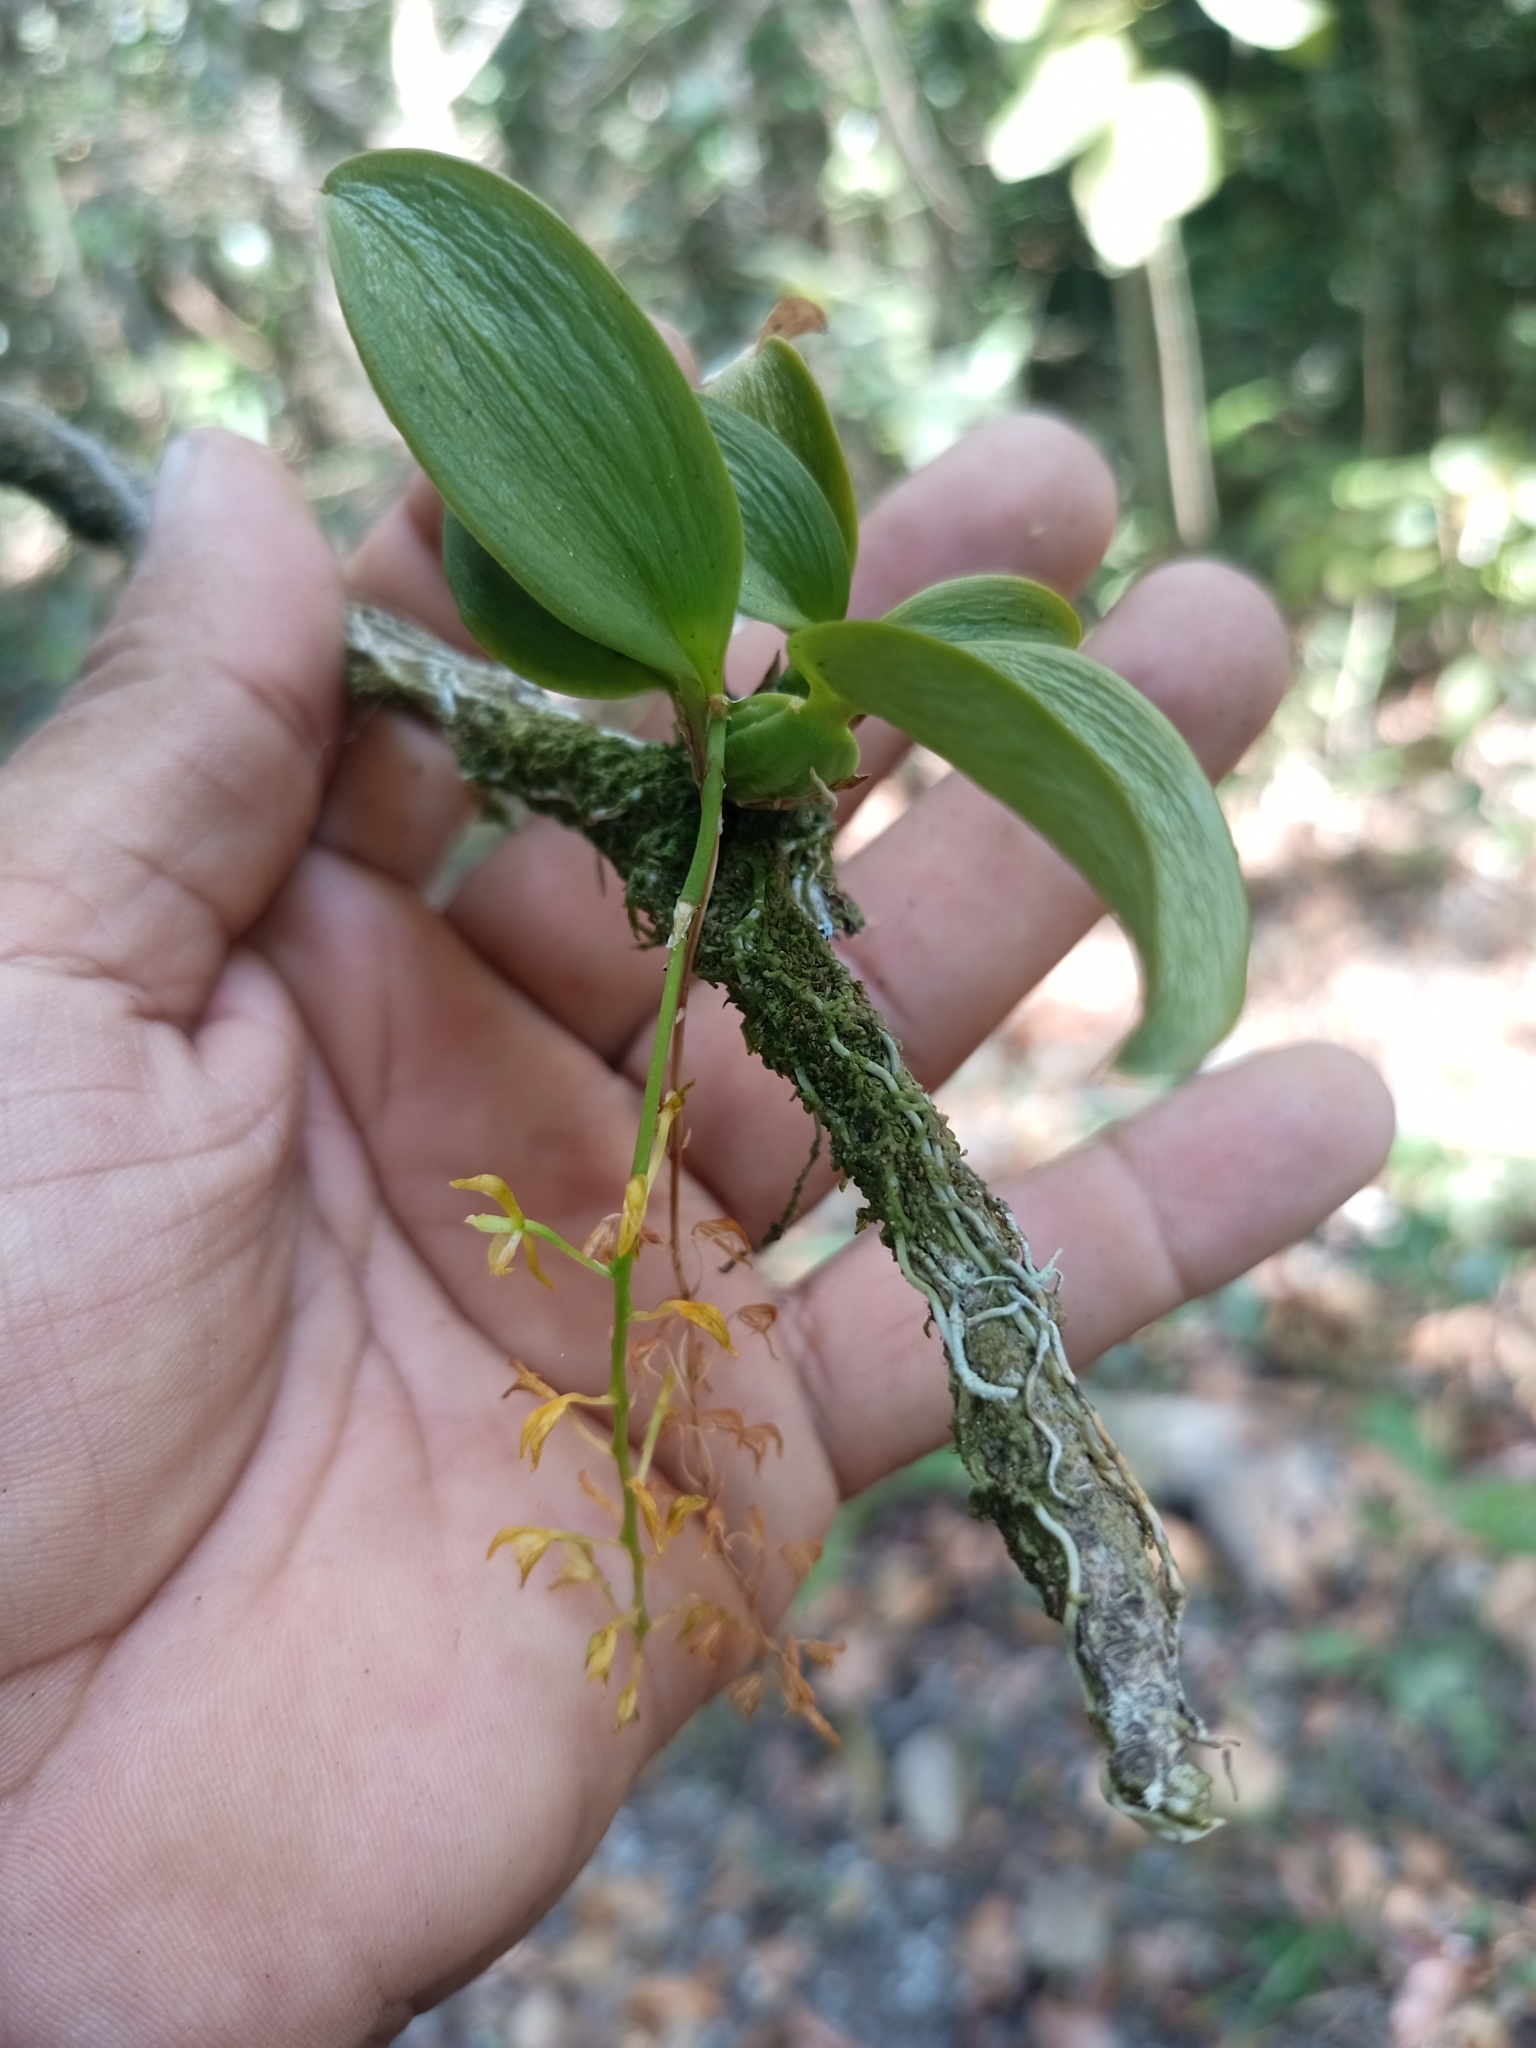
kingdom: Plantae
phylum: Tracheophyta
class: Liliopsida
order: Asparagales
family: Orchidaceae
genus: Notylia
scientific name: Notylia orbicularis
